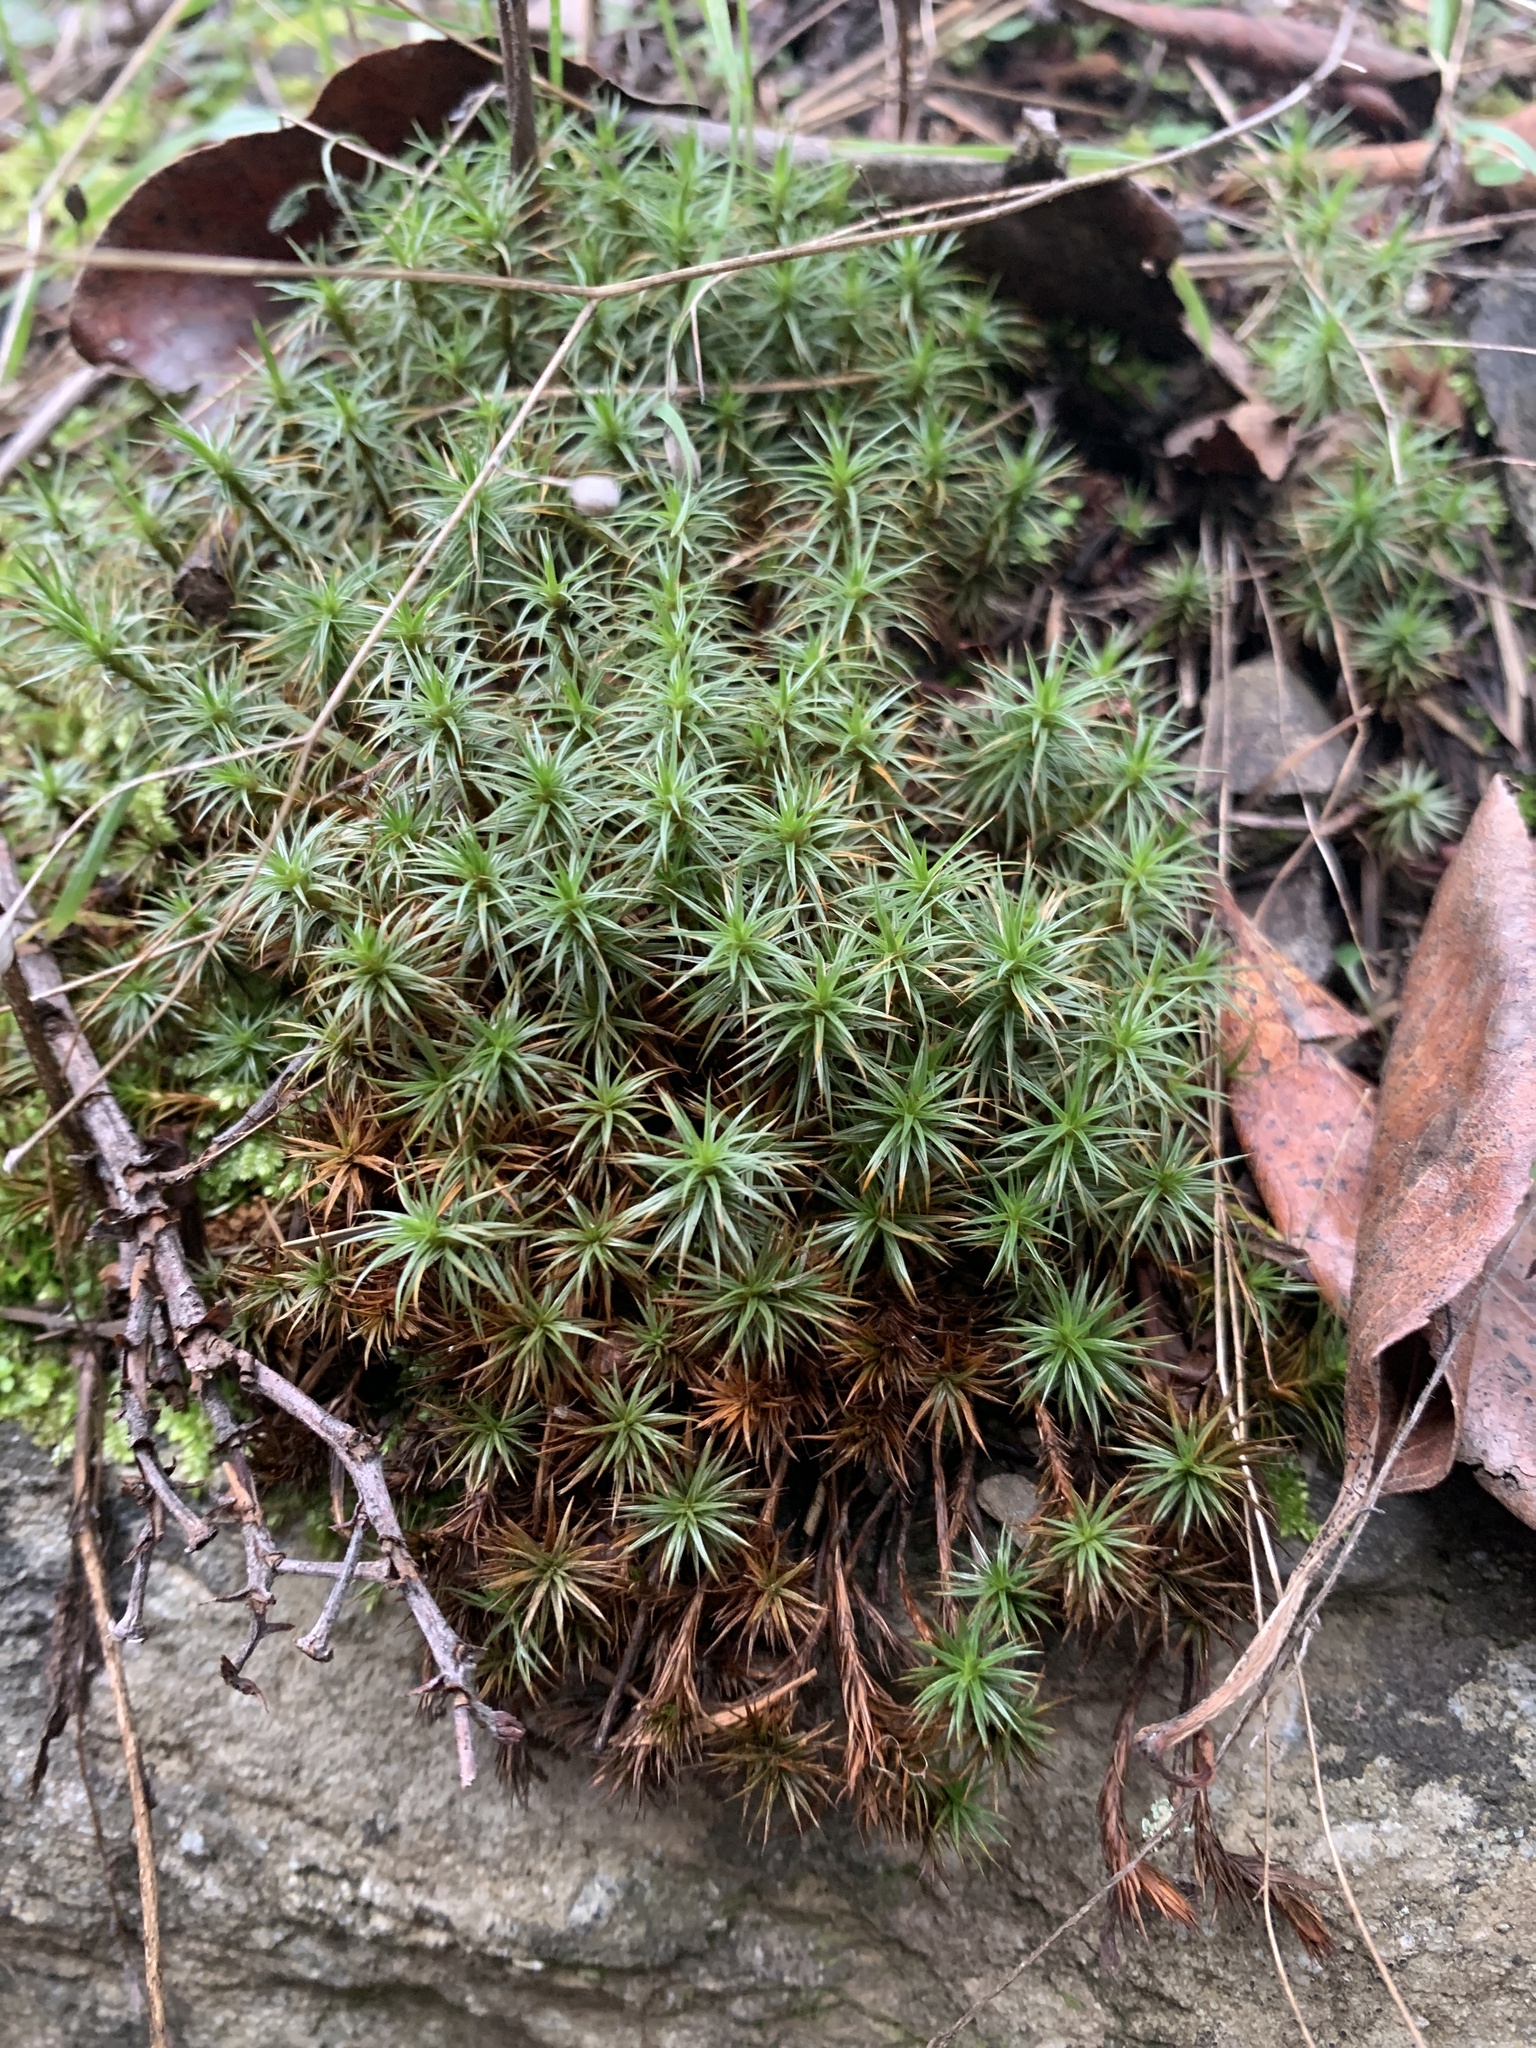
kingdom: Plantae
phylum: Bryophyta
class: Polytrichopsida
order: Polytrichales
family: Polytrichaceae
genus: Polytrichum
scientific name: Polytrichum juniperinum
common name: Juniper haircap moss
